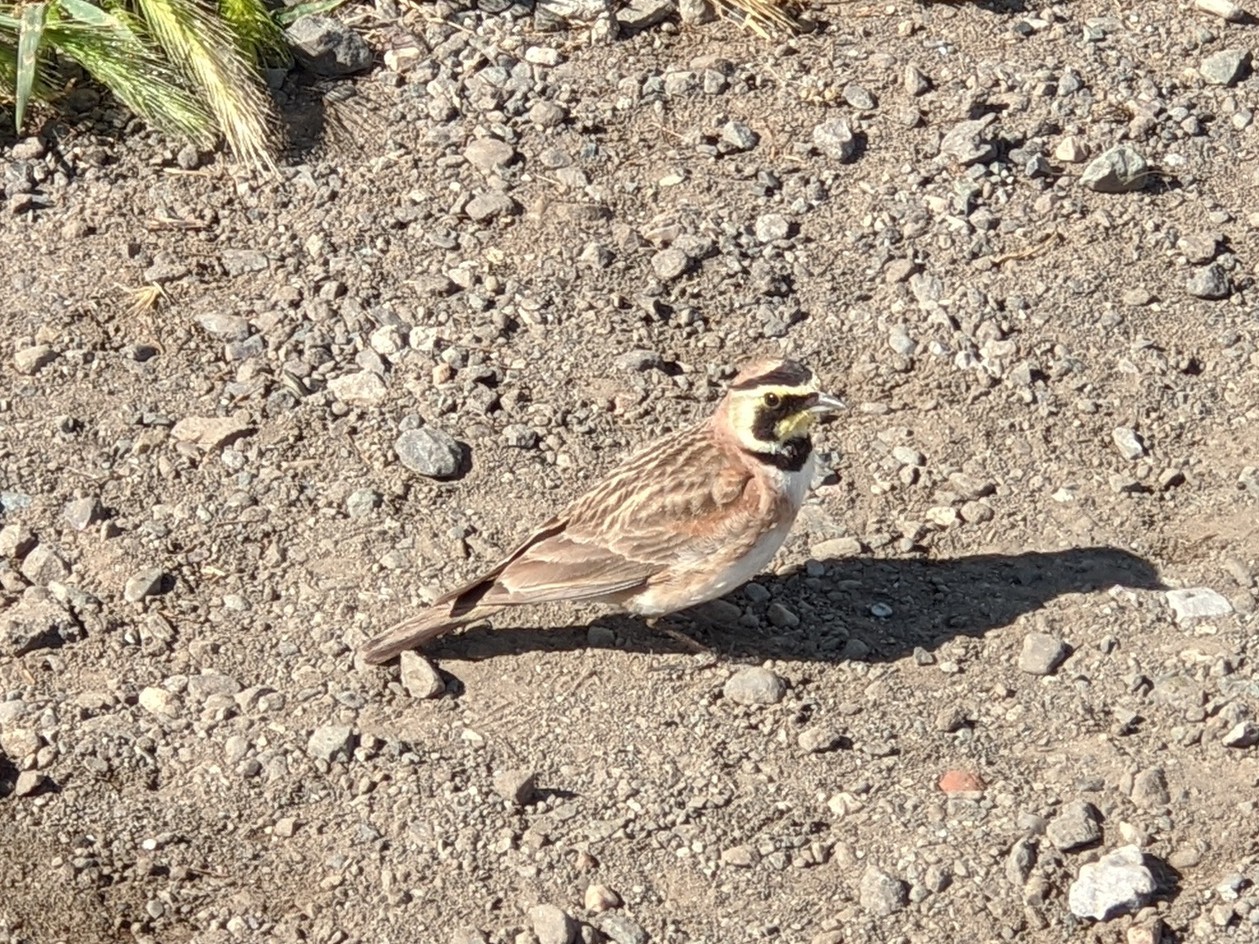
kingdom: Animalia
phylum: Chordata
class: Aves
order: Passeriformes
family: Alaudidae
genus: Eremophila
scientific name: Eremophila alpestris
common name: Horned lark
